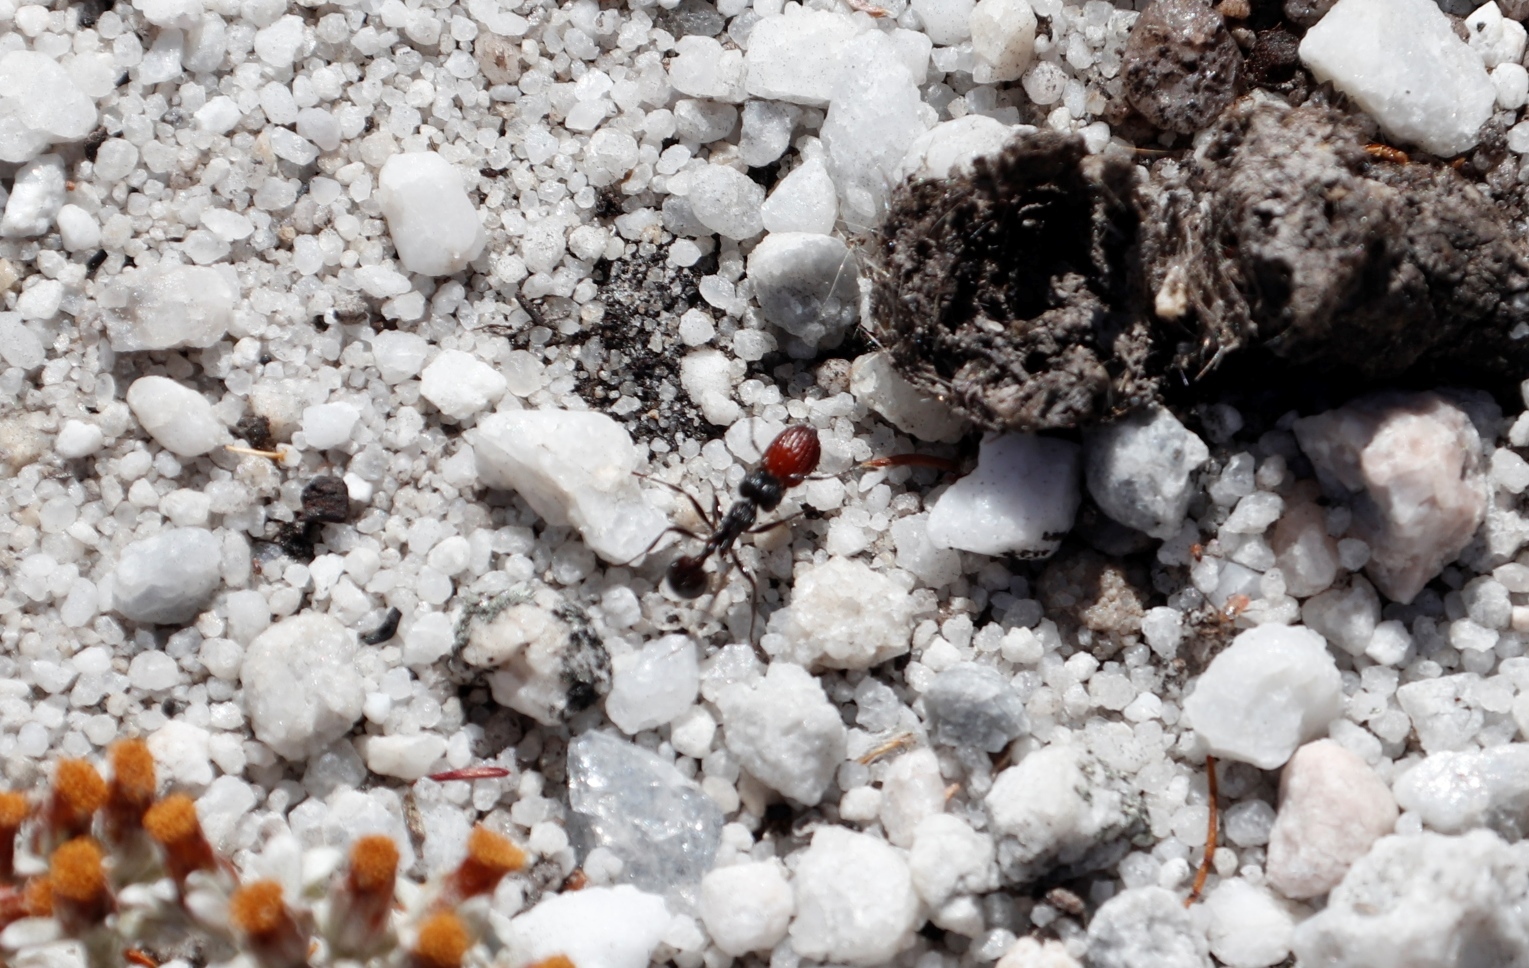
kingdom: Animalia
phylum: Arthropoda
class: Insecta
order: Hymenoptera
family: Formicidae
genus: Myrmicaria
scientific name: Myrmicaria nigra
